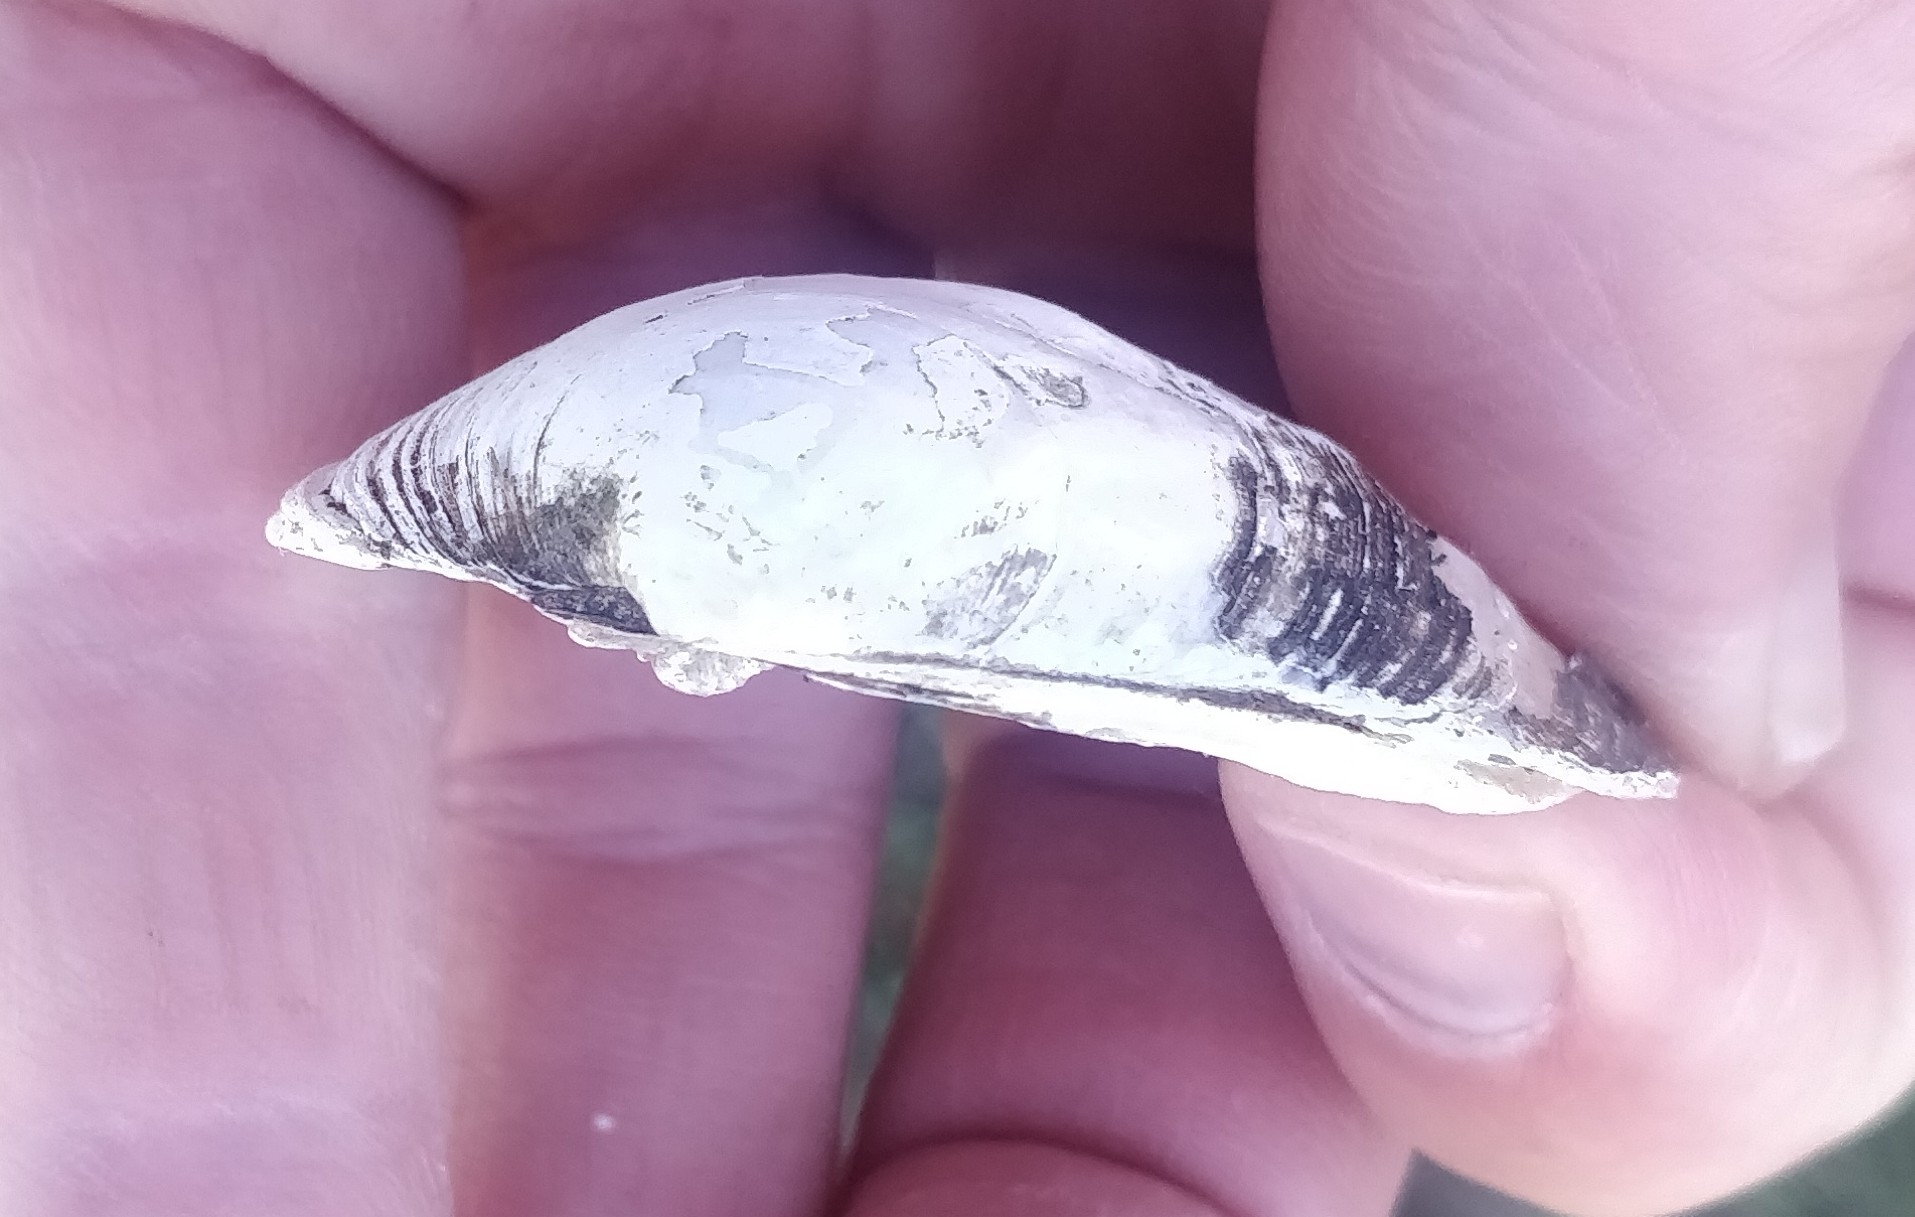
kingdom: Animalia
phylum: Mollusca
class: Bivalvia
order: Unionida
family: Unionidae
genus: Amblema
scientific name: Amblema plicata
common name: Threeridge
